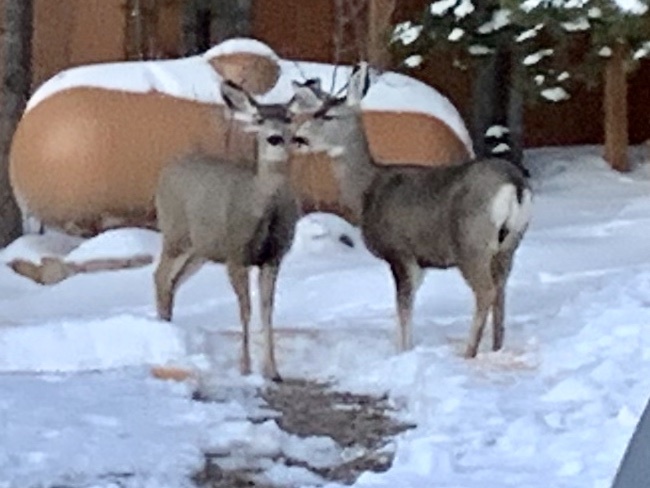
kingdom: Animalia
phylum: Chordata
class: Mammalia
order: Artiodactyla
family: Cervidae
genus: Odocoileus
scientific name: Odocoileus hemionus
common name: Mule deer
